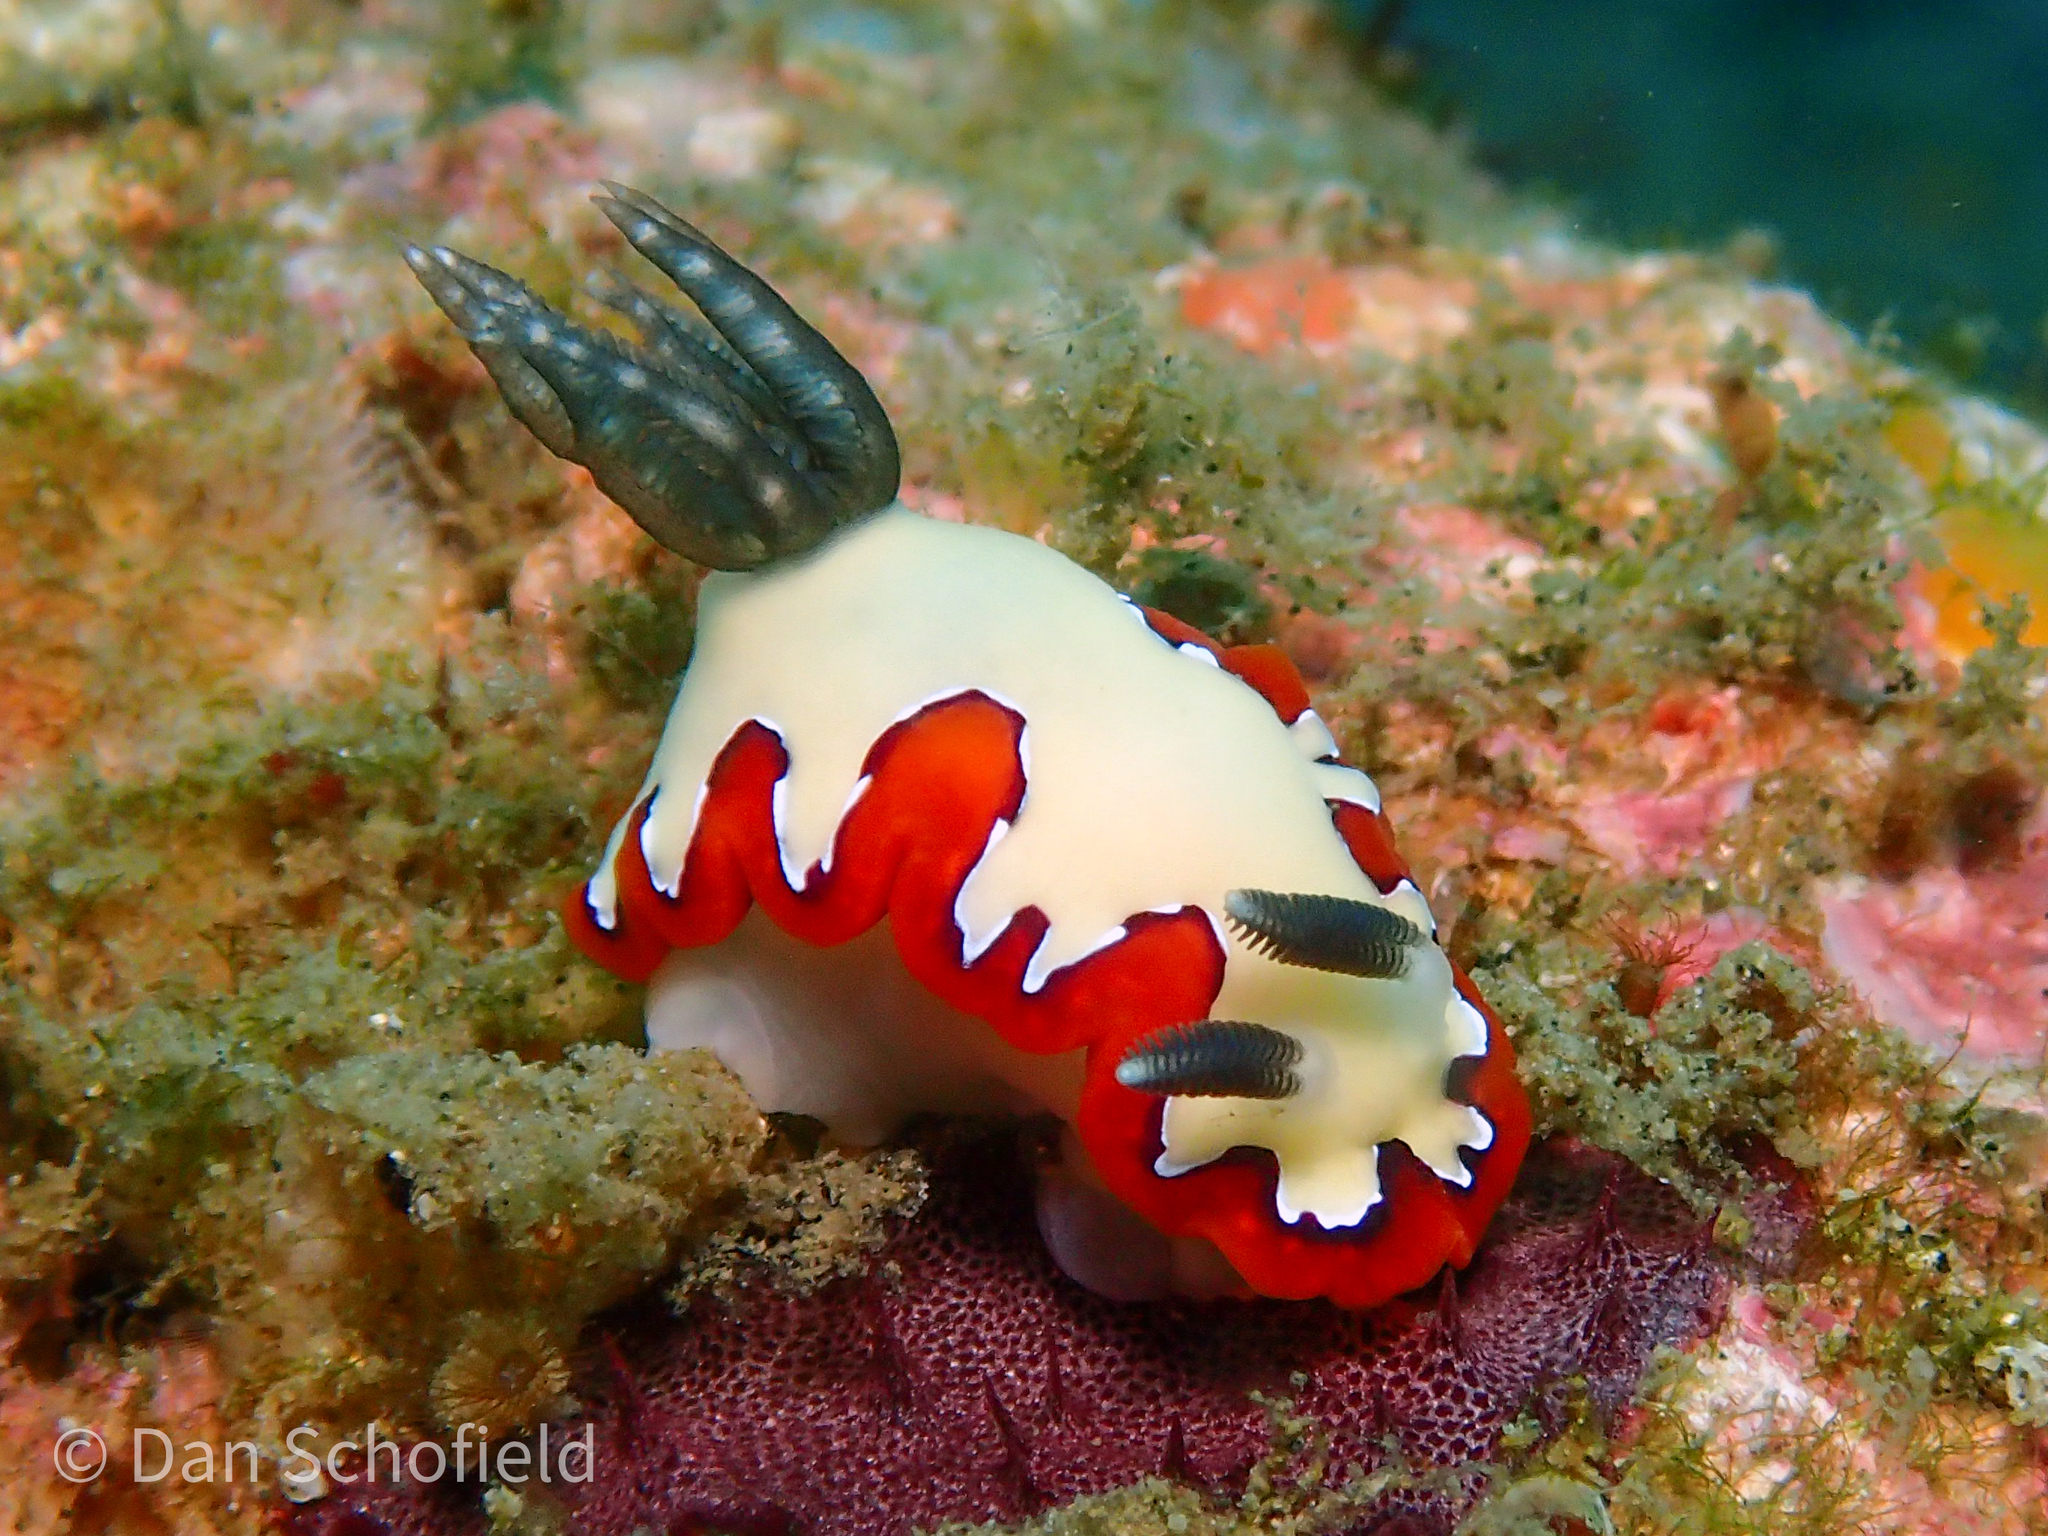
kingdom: Animalia
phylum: Mollusca
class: Gastropoda
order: Nudibranchia
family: Chromodorididae
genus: Goniobranchus
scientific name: Goniobranchus fidelis
